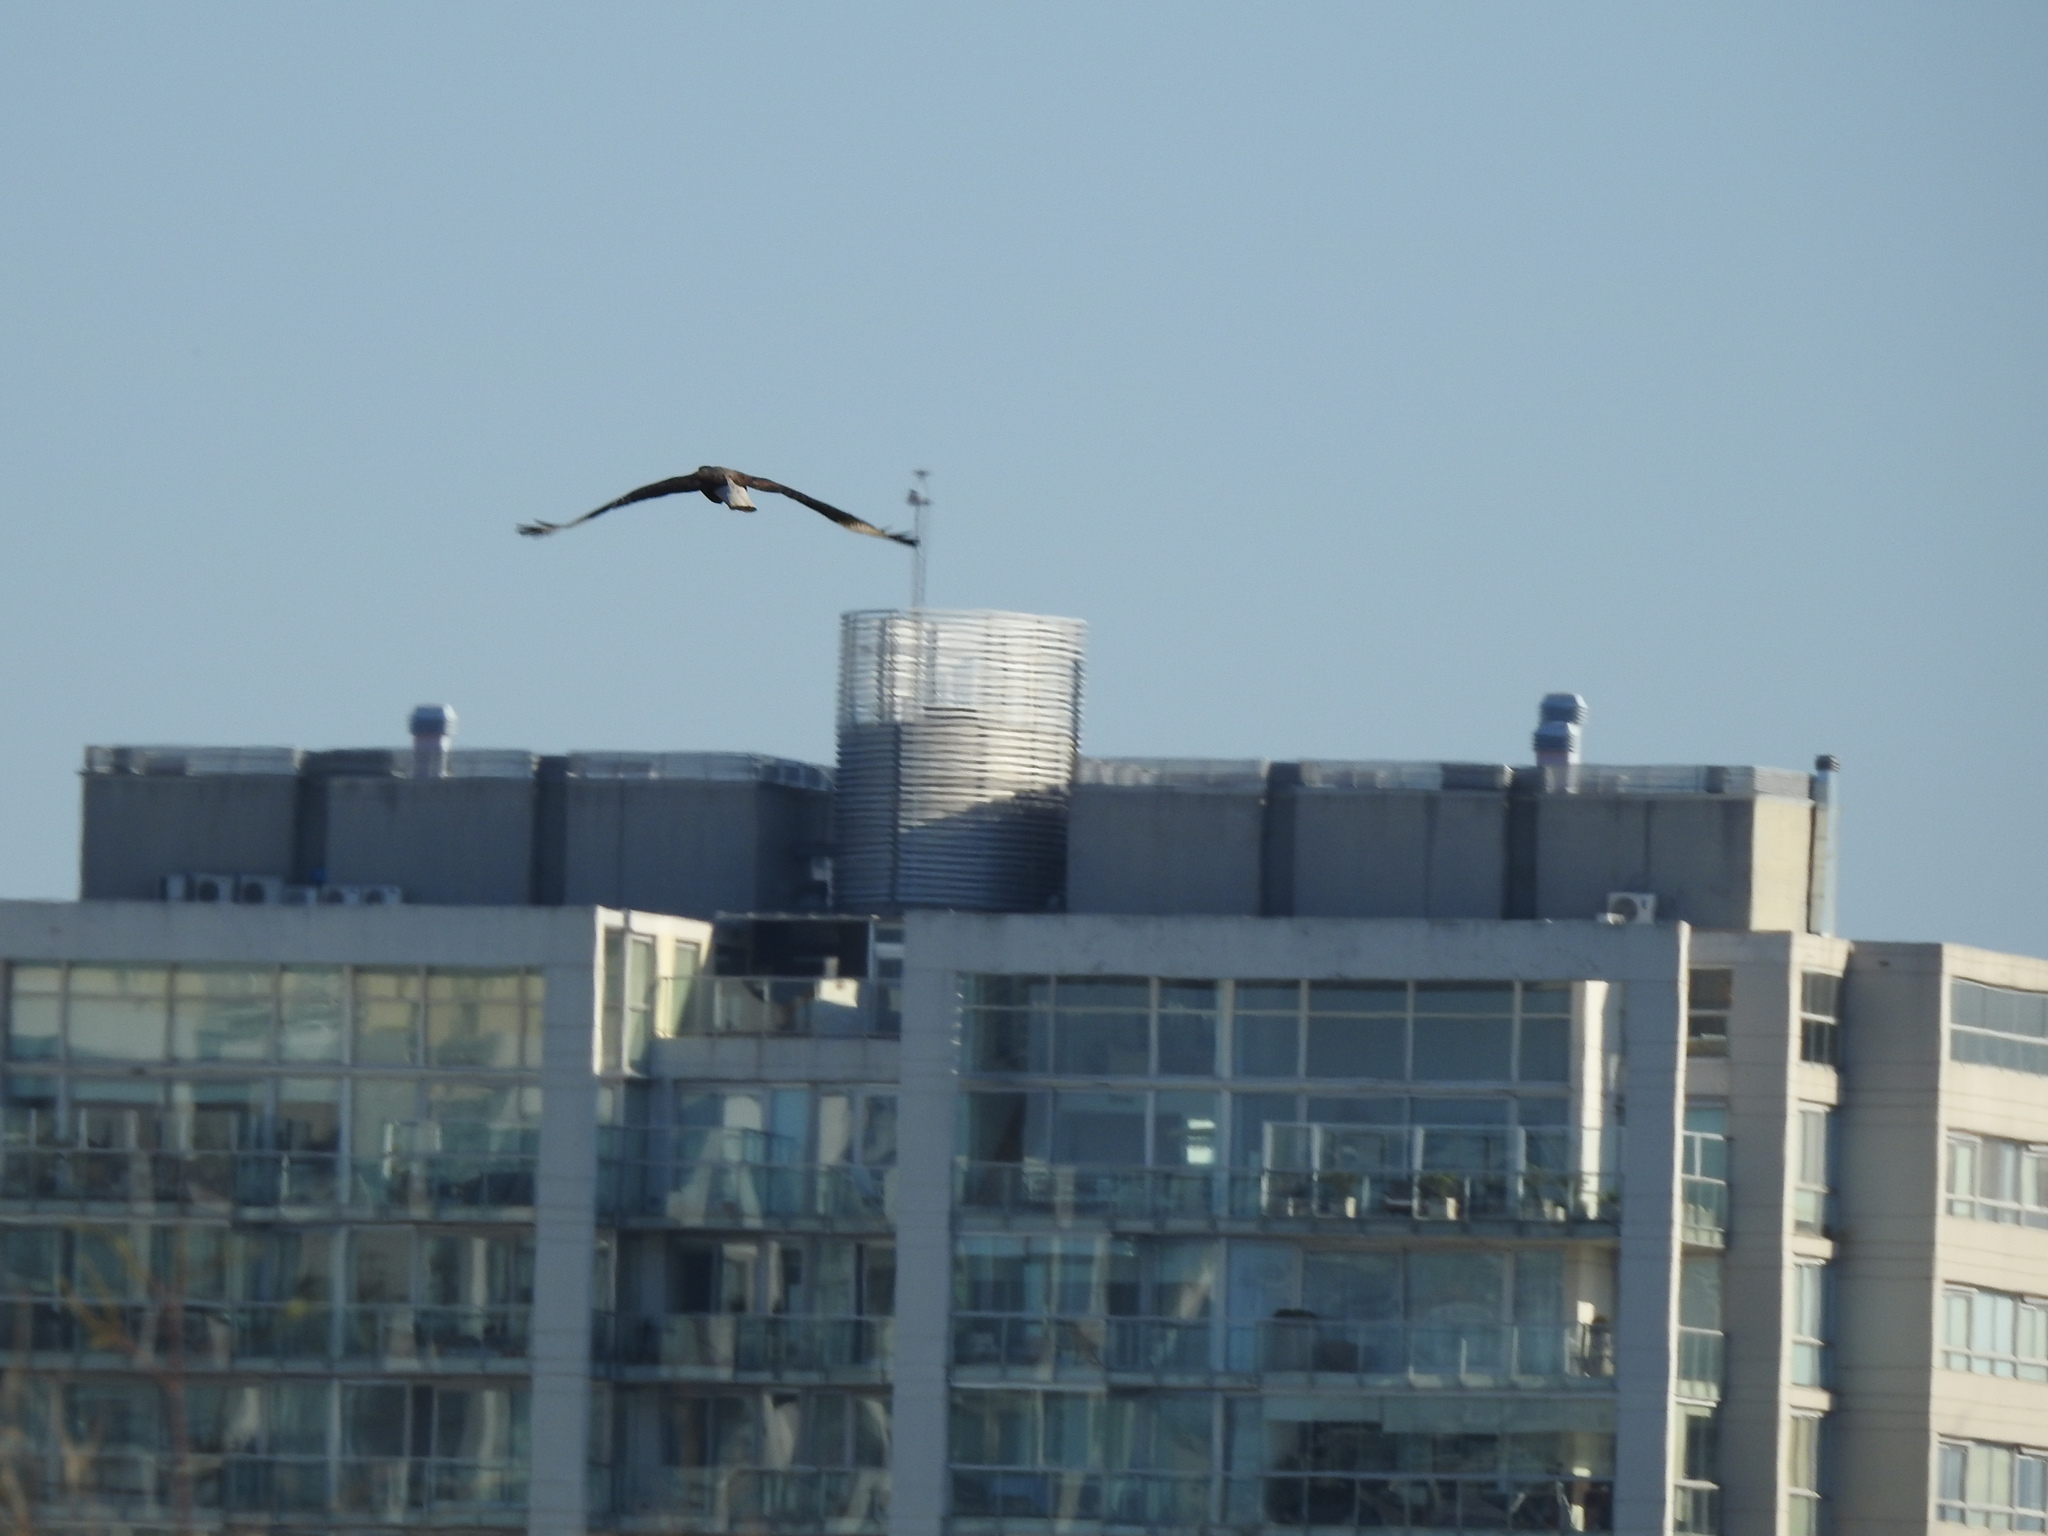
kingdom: Animalia
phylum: Chordata
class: Aves
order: Falconiformes
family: Falconidae
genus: Caracara
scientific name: Caracara plancus
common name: Southern caracara
